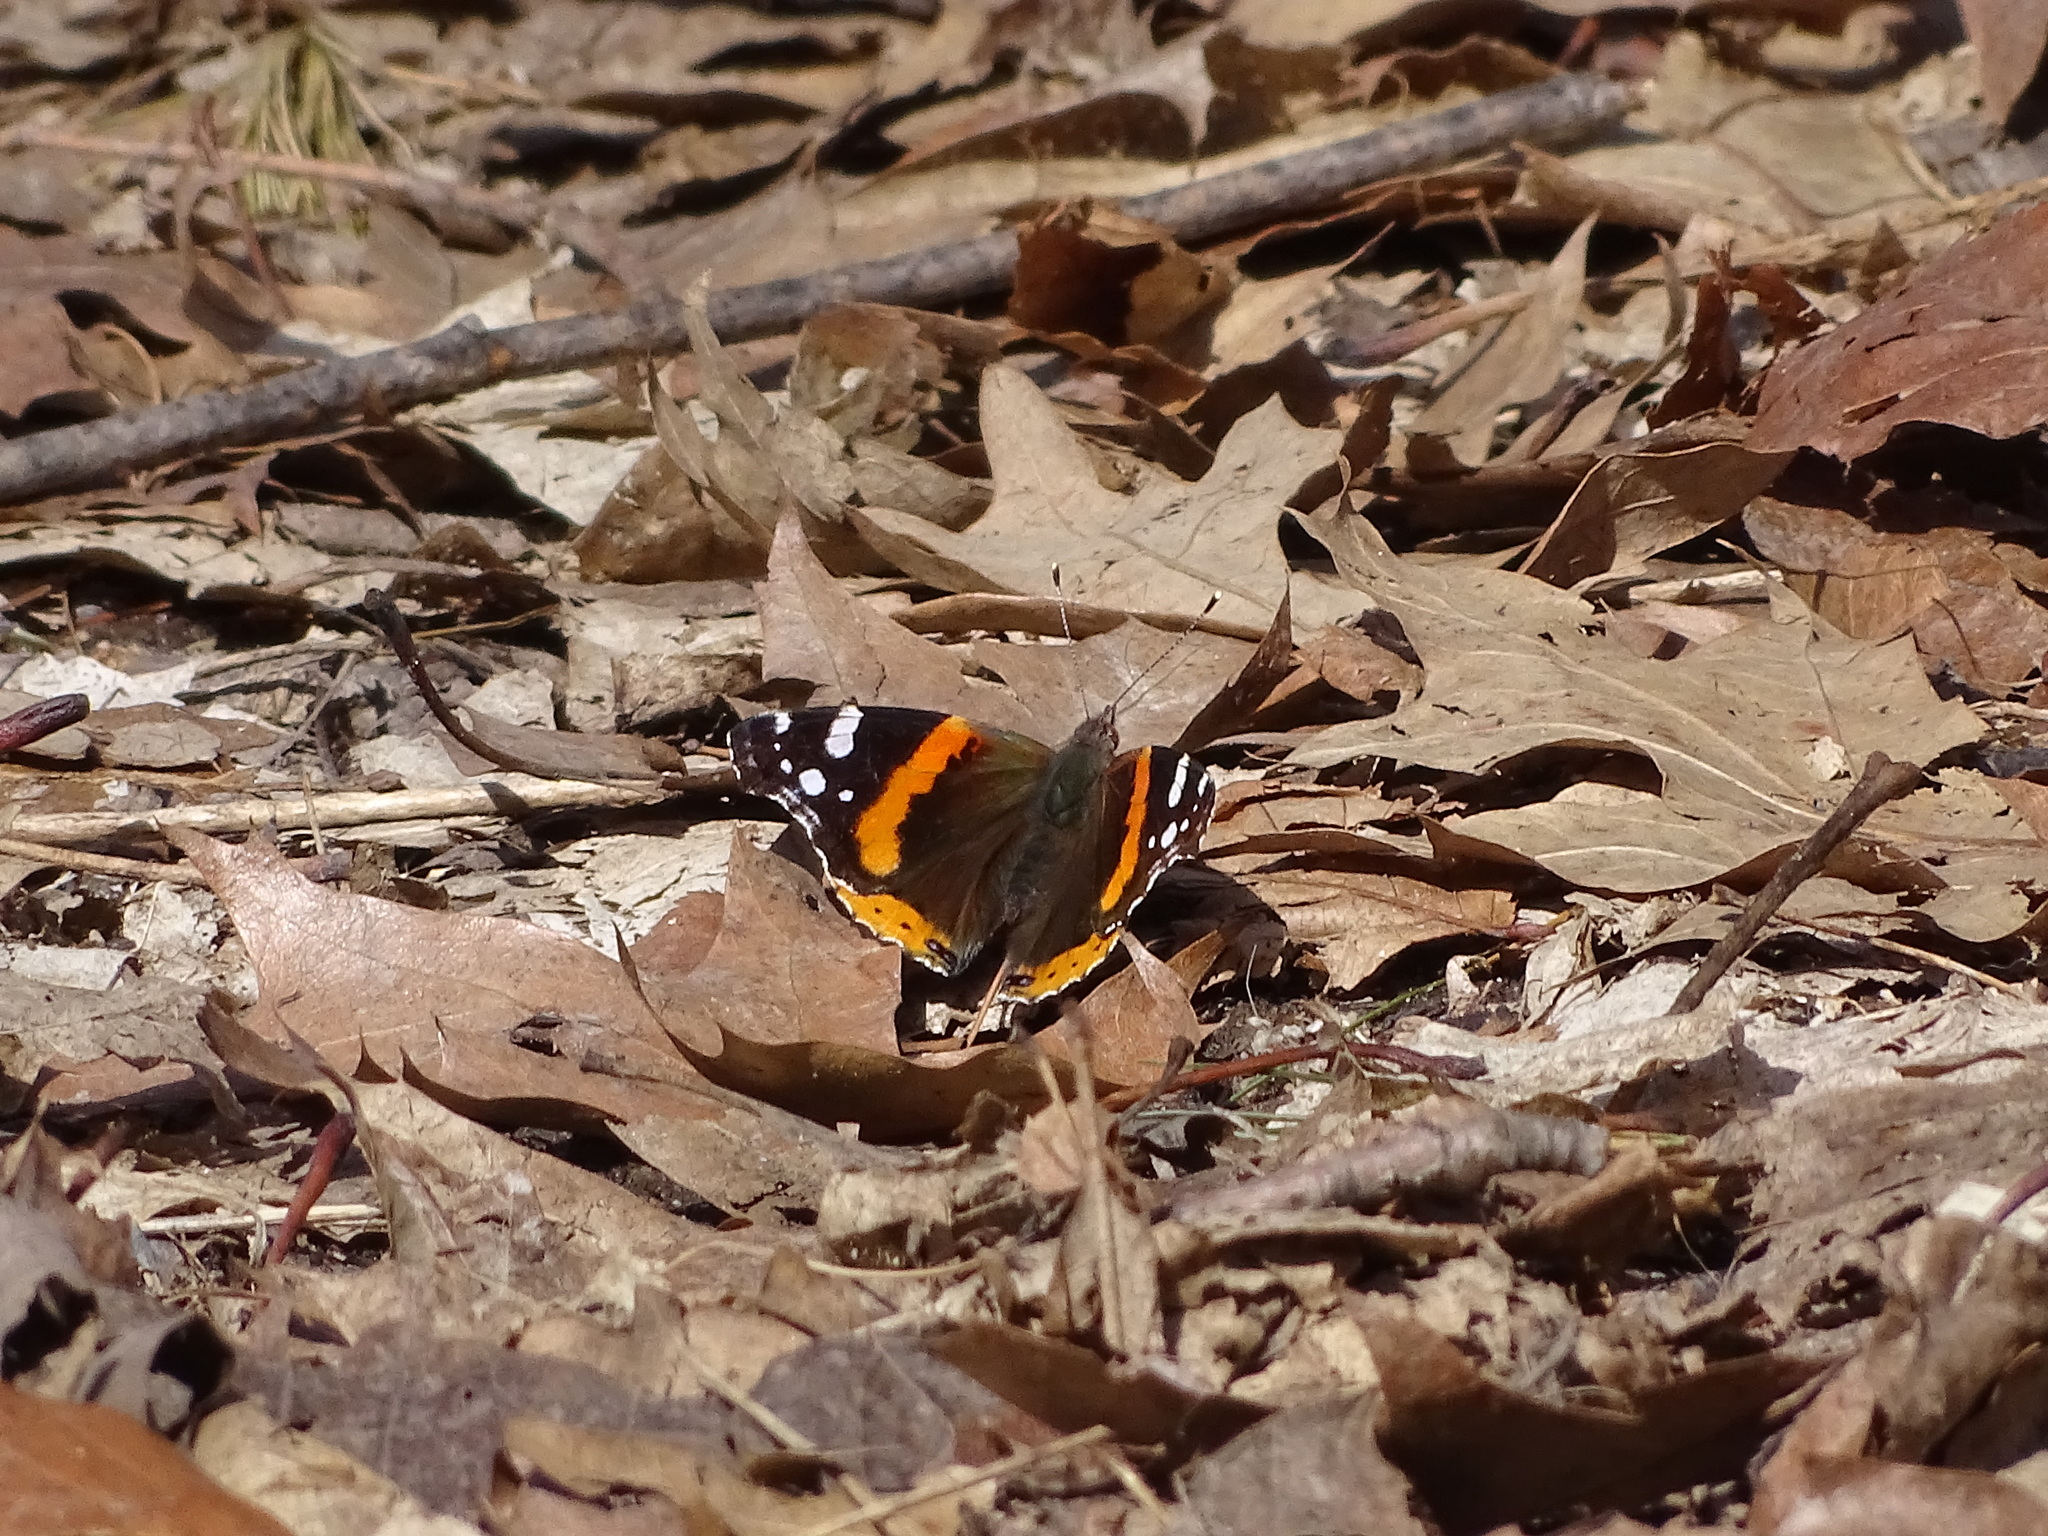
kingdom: Animalia
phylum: Arthropoda
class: Insecta
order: Lepidoptera
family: Nymphalidae
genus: Vanessa
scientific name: Vanessa atalanta
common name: Red admiral
